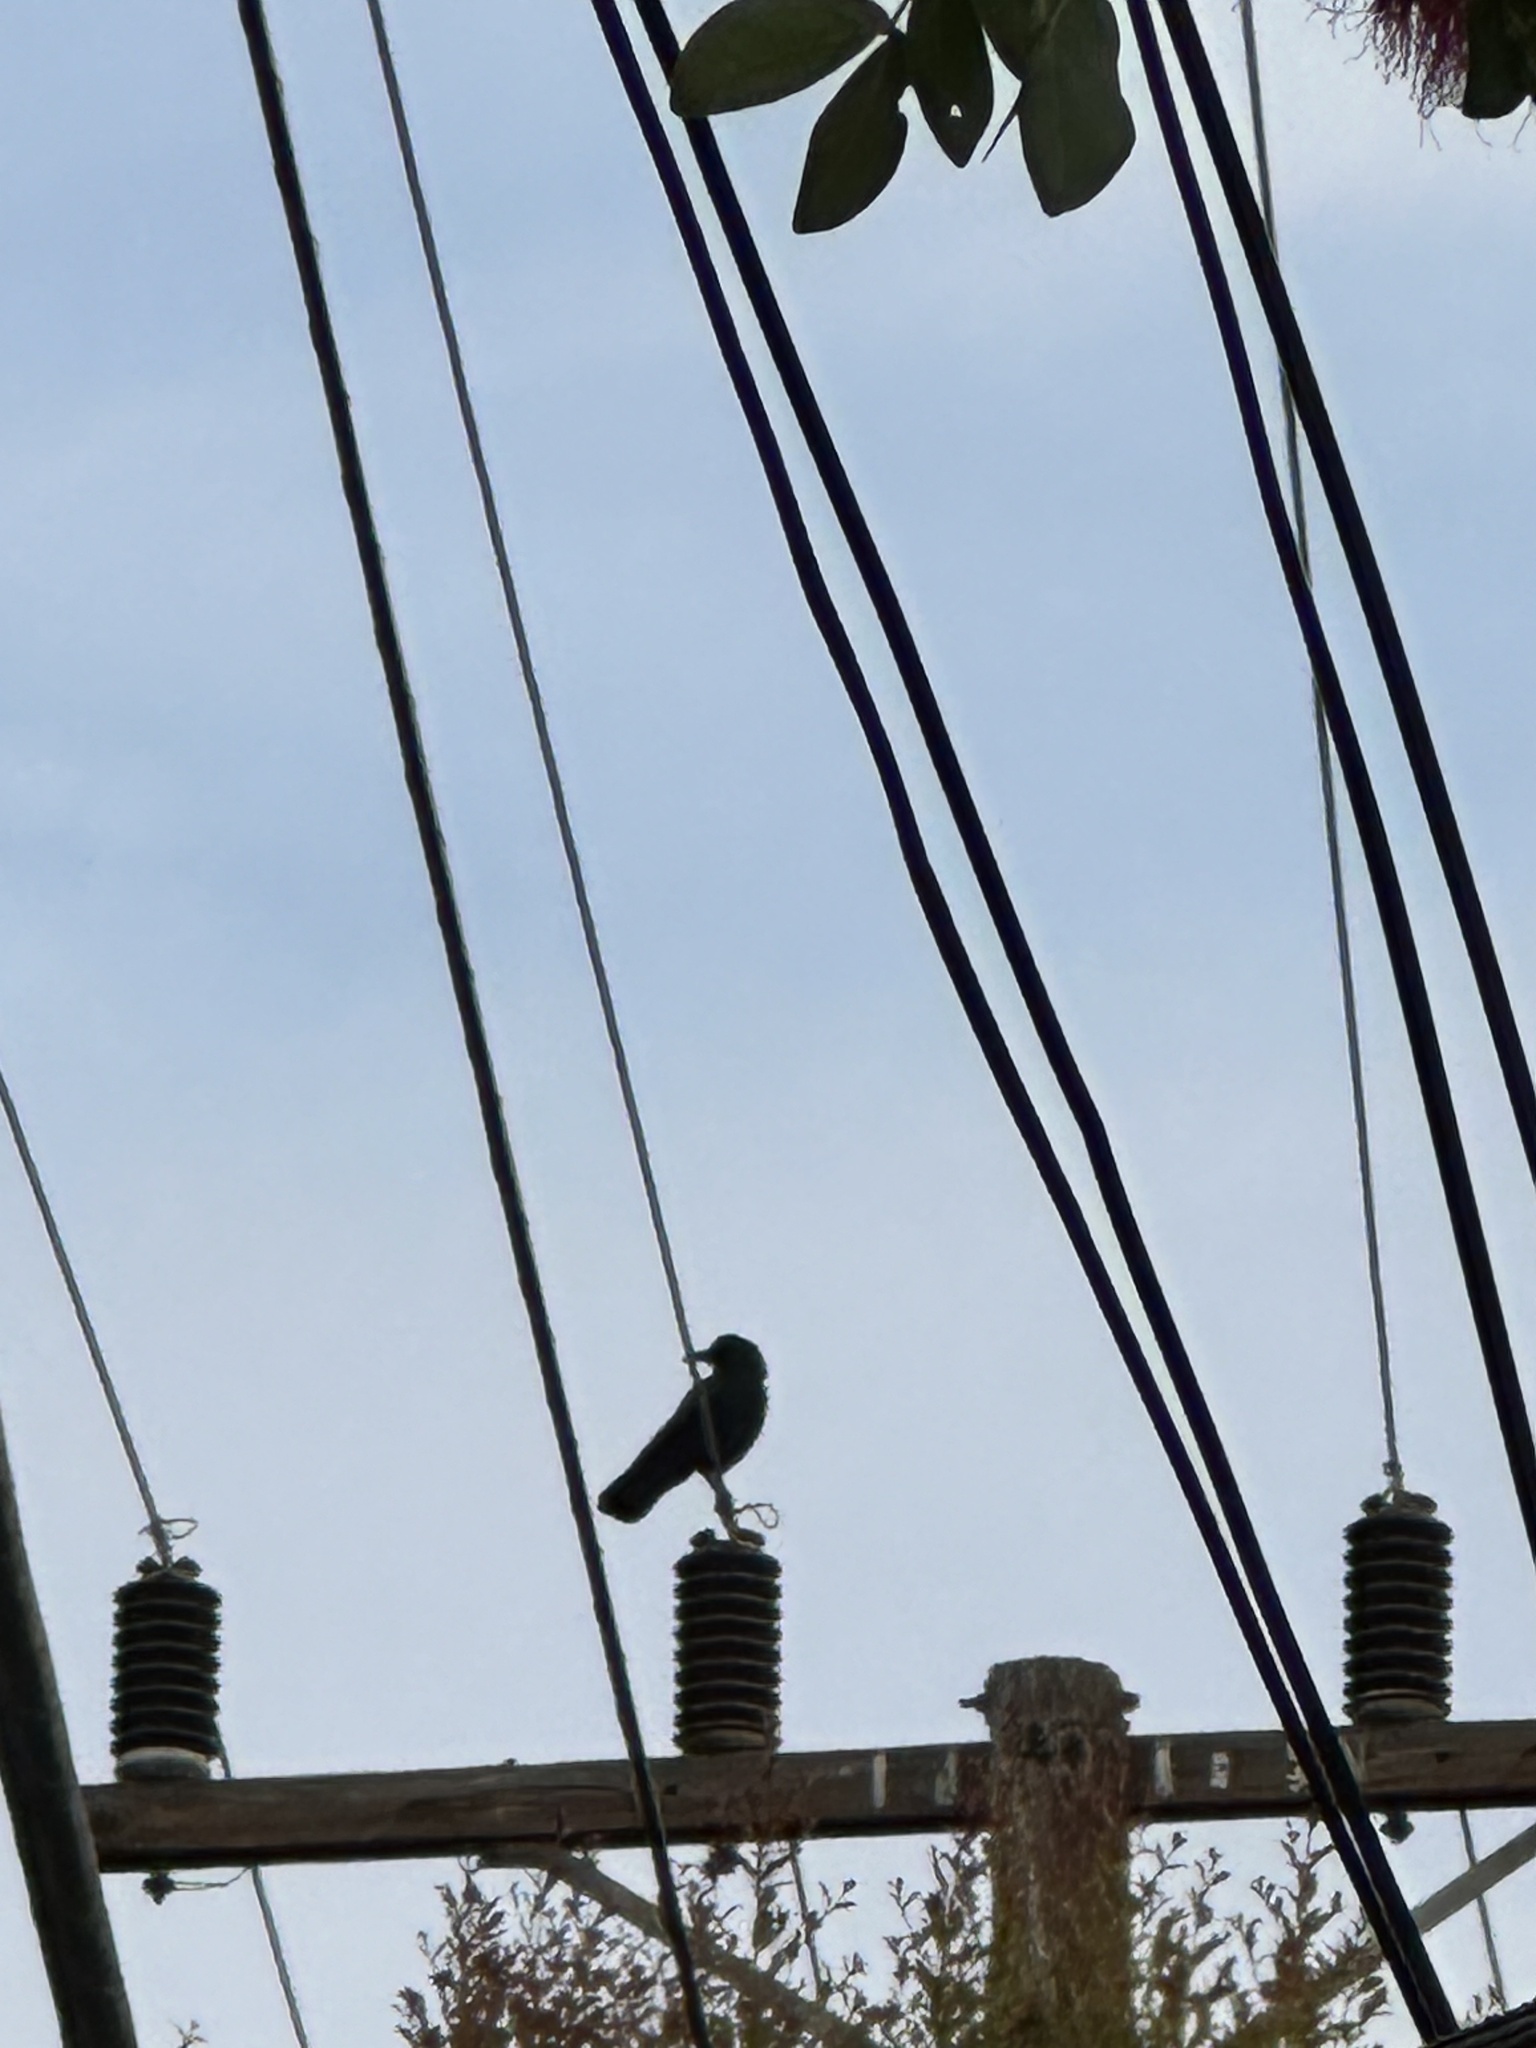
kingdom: Animalia
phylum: Chordata
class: Aves
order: Passeriformes
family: Corvidae
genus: Corvus
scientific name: Corvus brachyrhynchos
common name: American crow
